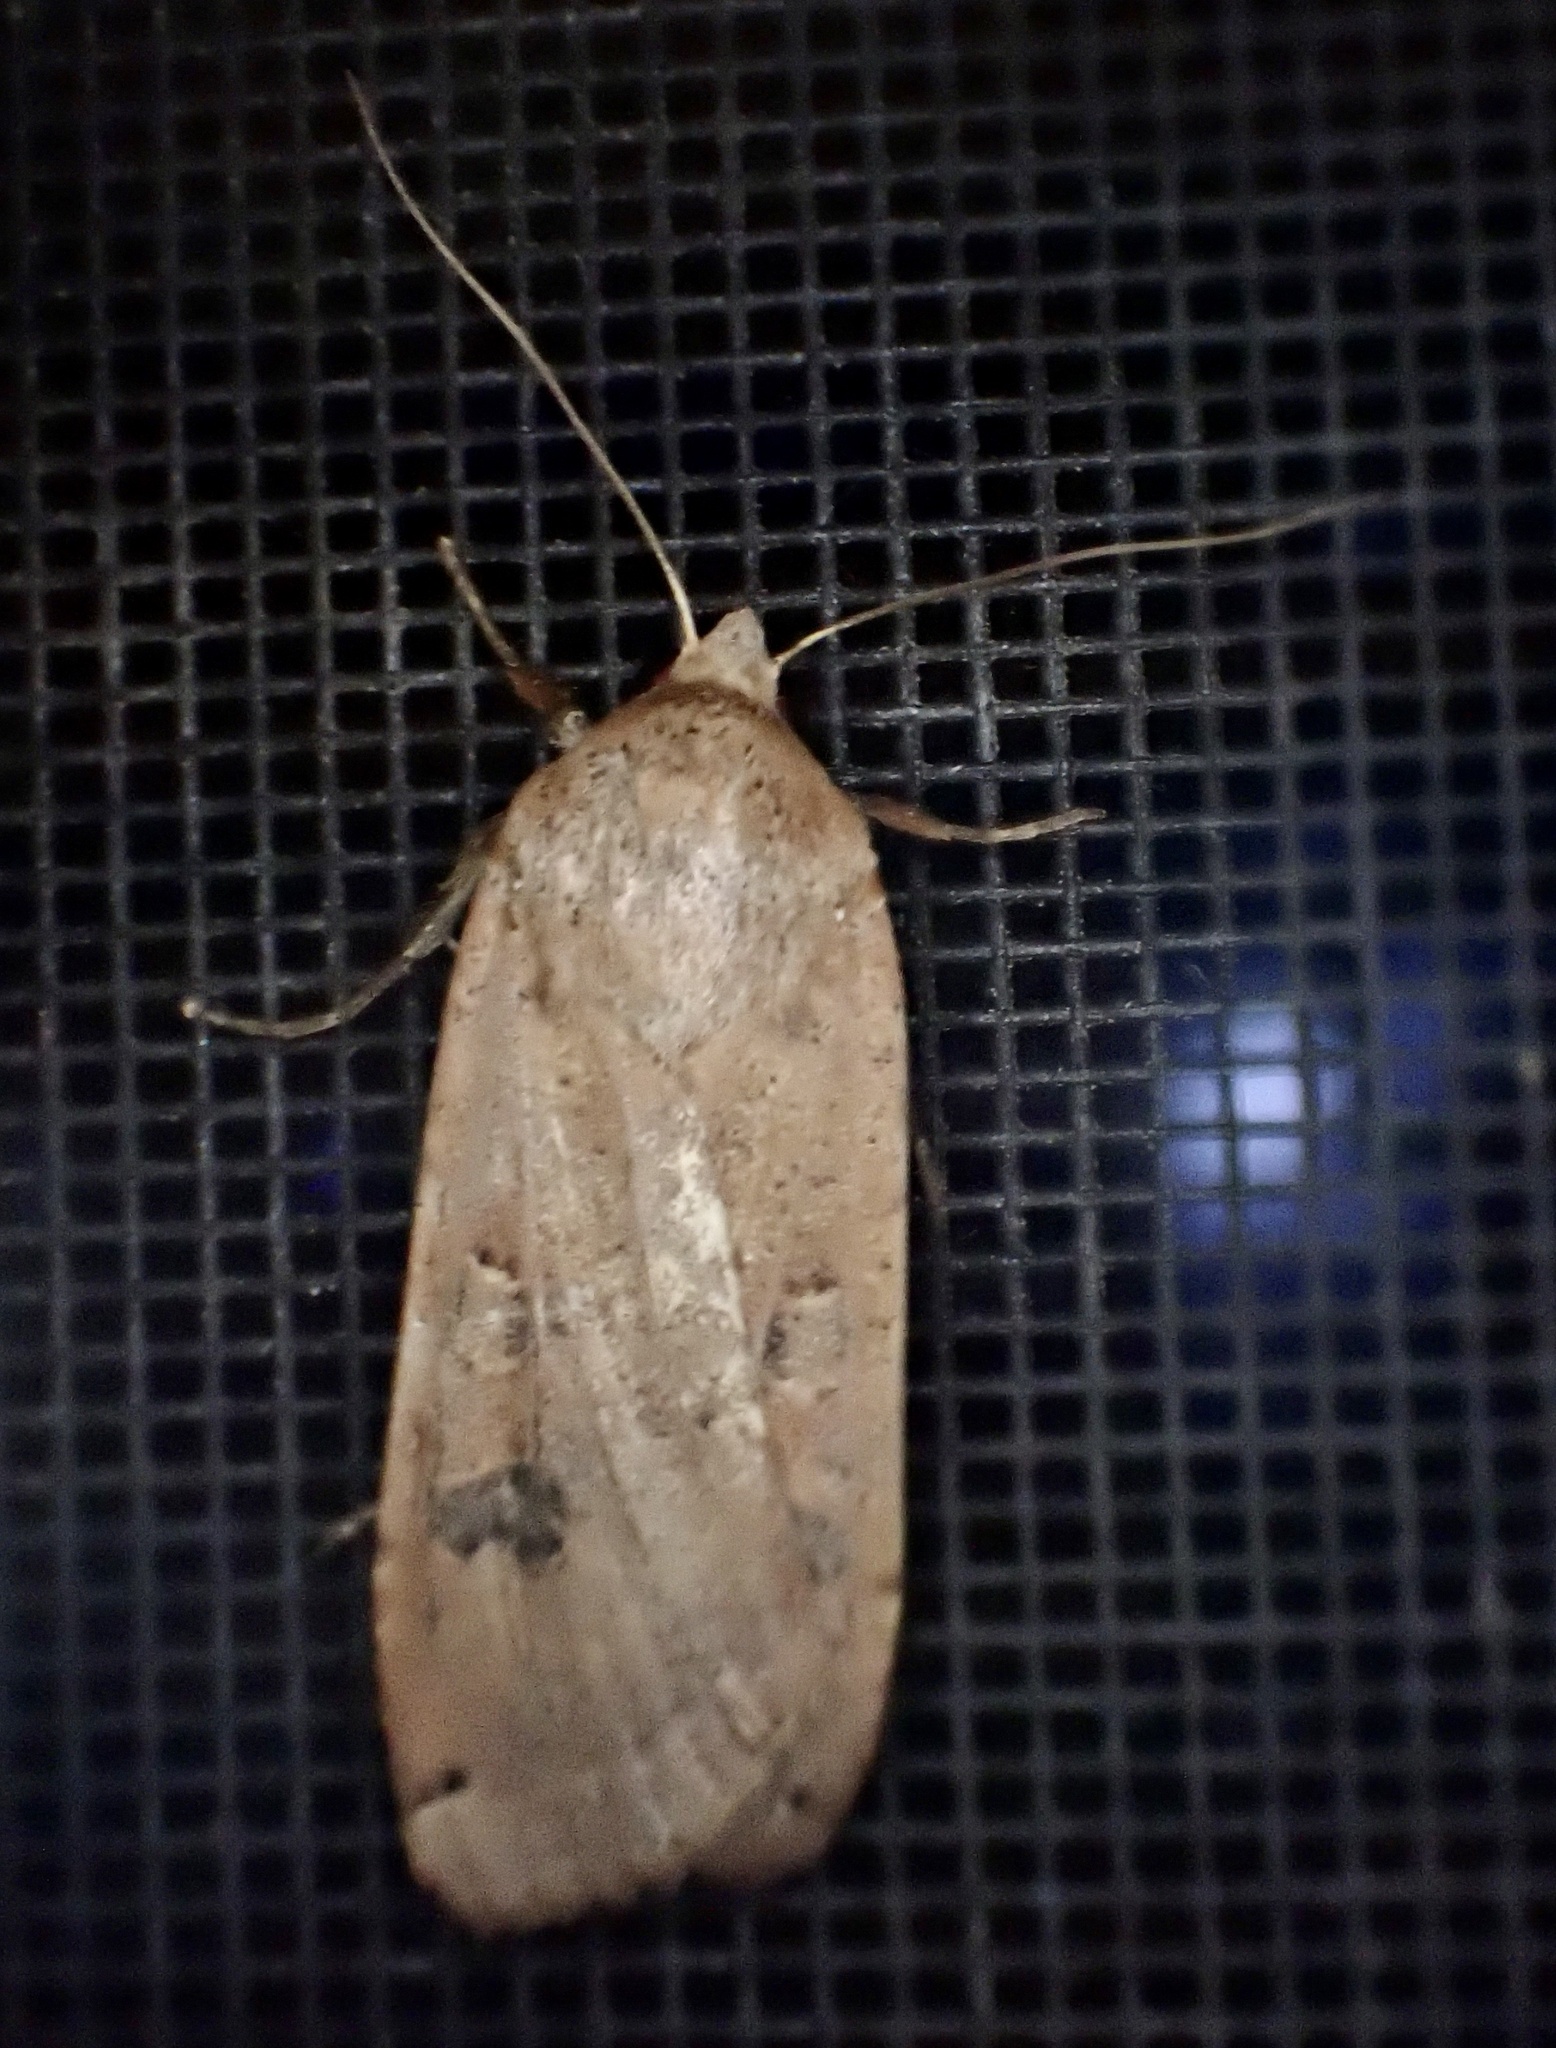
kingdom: Animalia
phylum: Arthropoda
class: Insecta
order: Lepidoptera
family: Noctuidae
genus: Noctua
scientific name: Noctua pronuba
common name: Large yellow underwing
